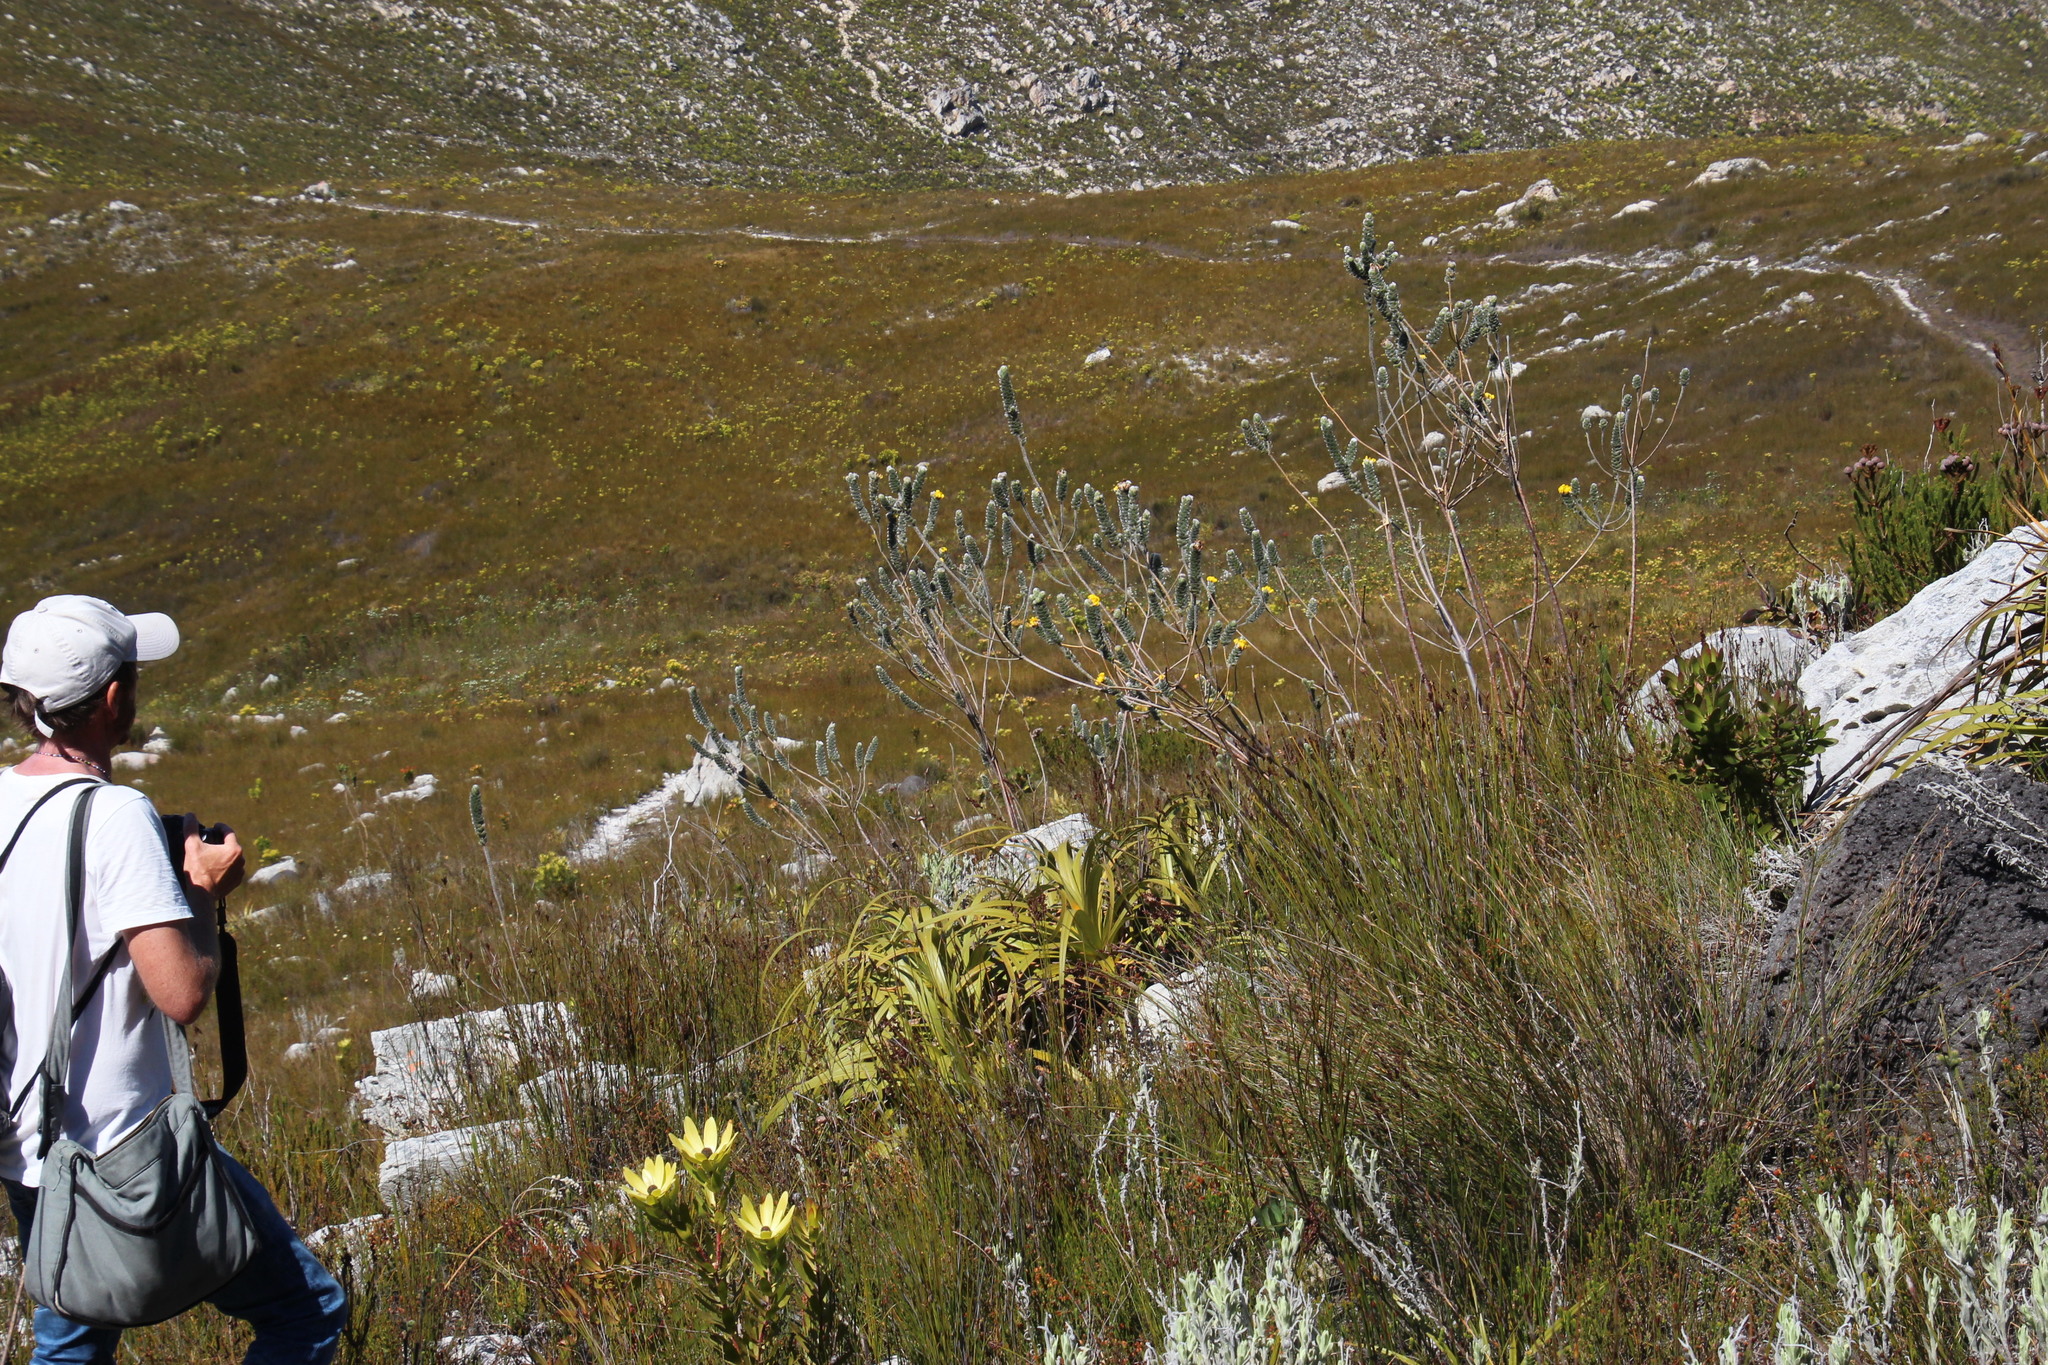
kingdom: Plantae
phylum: Tracheophyta
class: Magnoliopsida
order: Fabales
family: Fabaceae
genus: Liparia
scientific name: Liparia vestita
